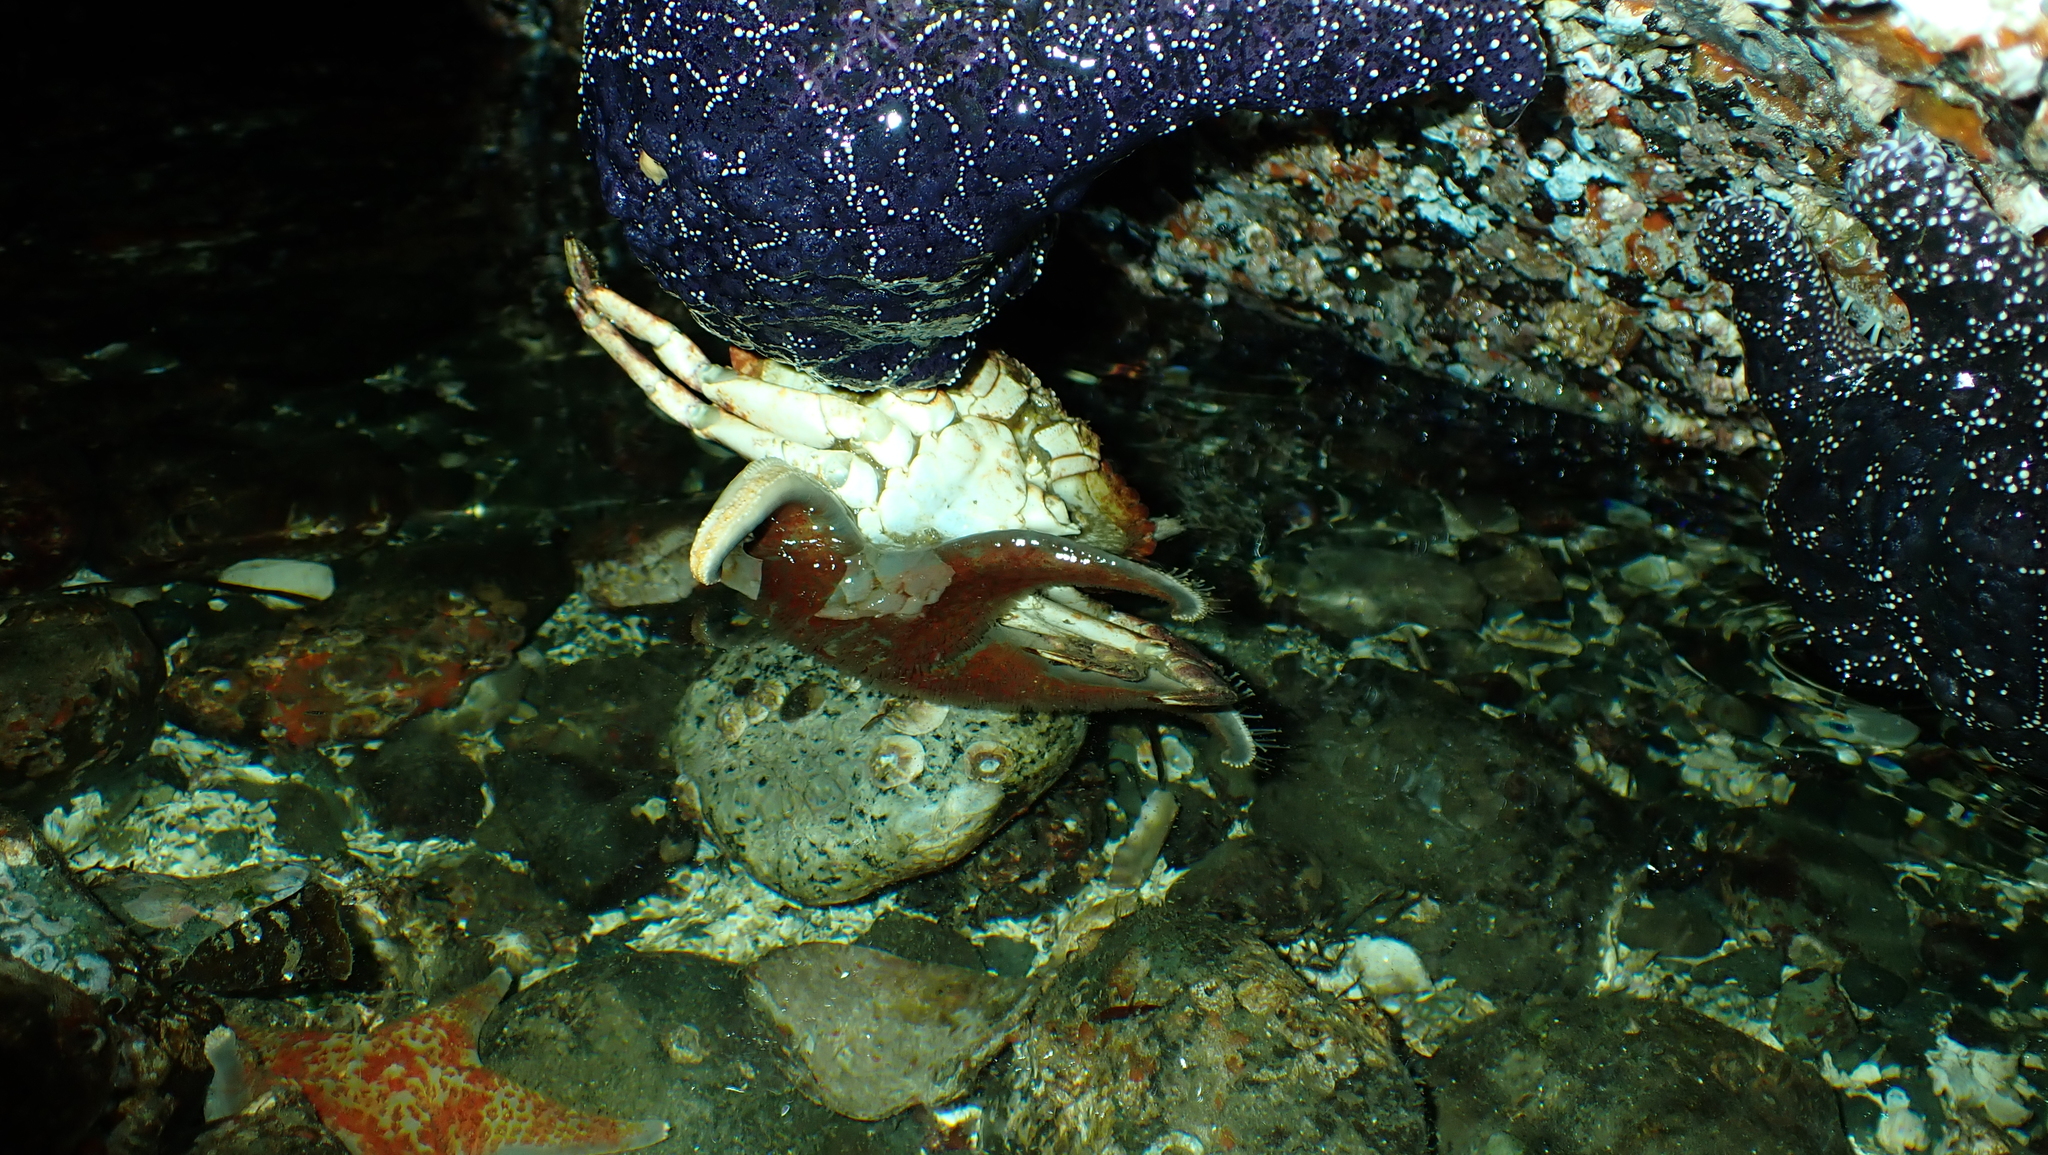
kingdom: Animalia
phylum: Arthropoda
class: Malacostraca
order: Decapoda
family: Cancridae
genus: Cancer
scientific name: Cancer productus
